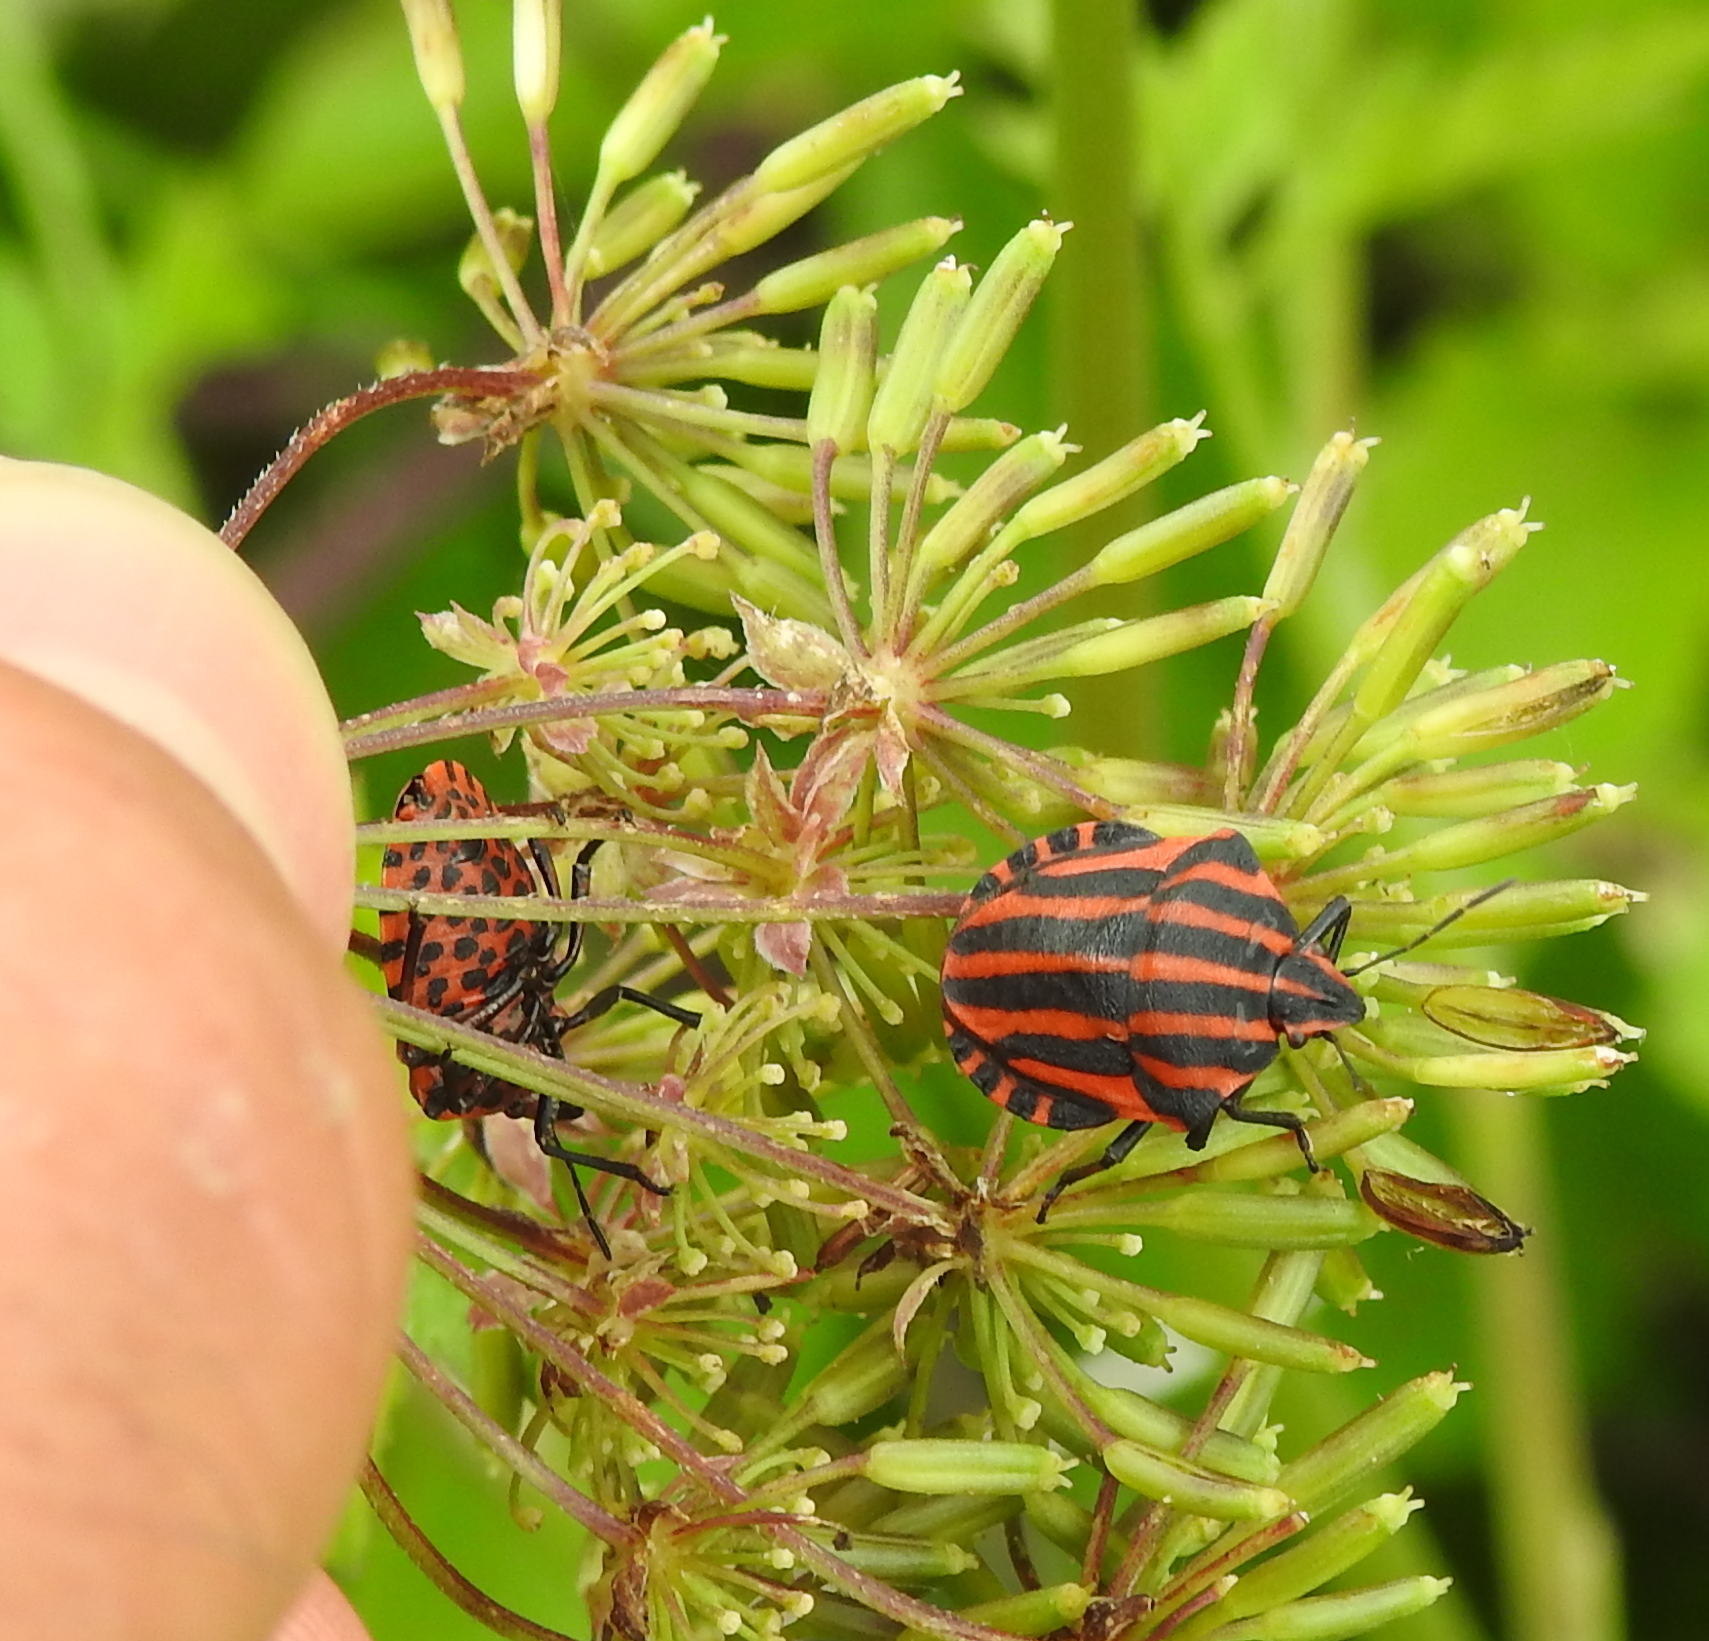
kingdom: Animalia
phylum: Arthropoda
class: Insecta
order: Hemiptera
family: Pentatomidae
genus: Graphosoma
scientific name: Graphosoma italicum
